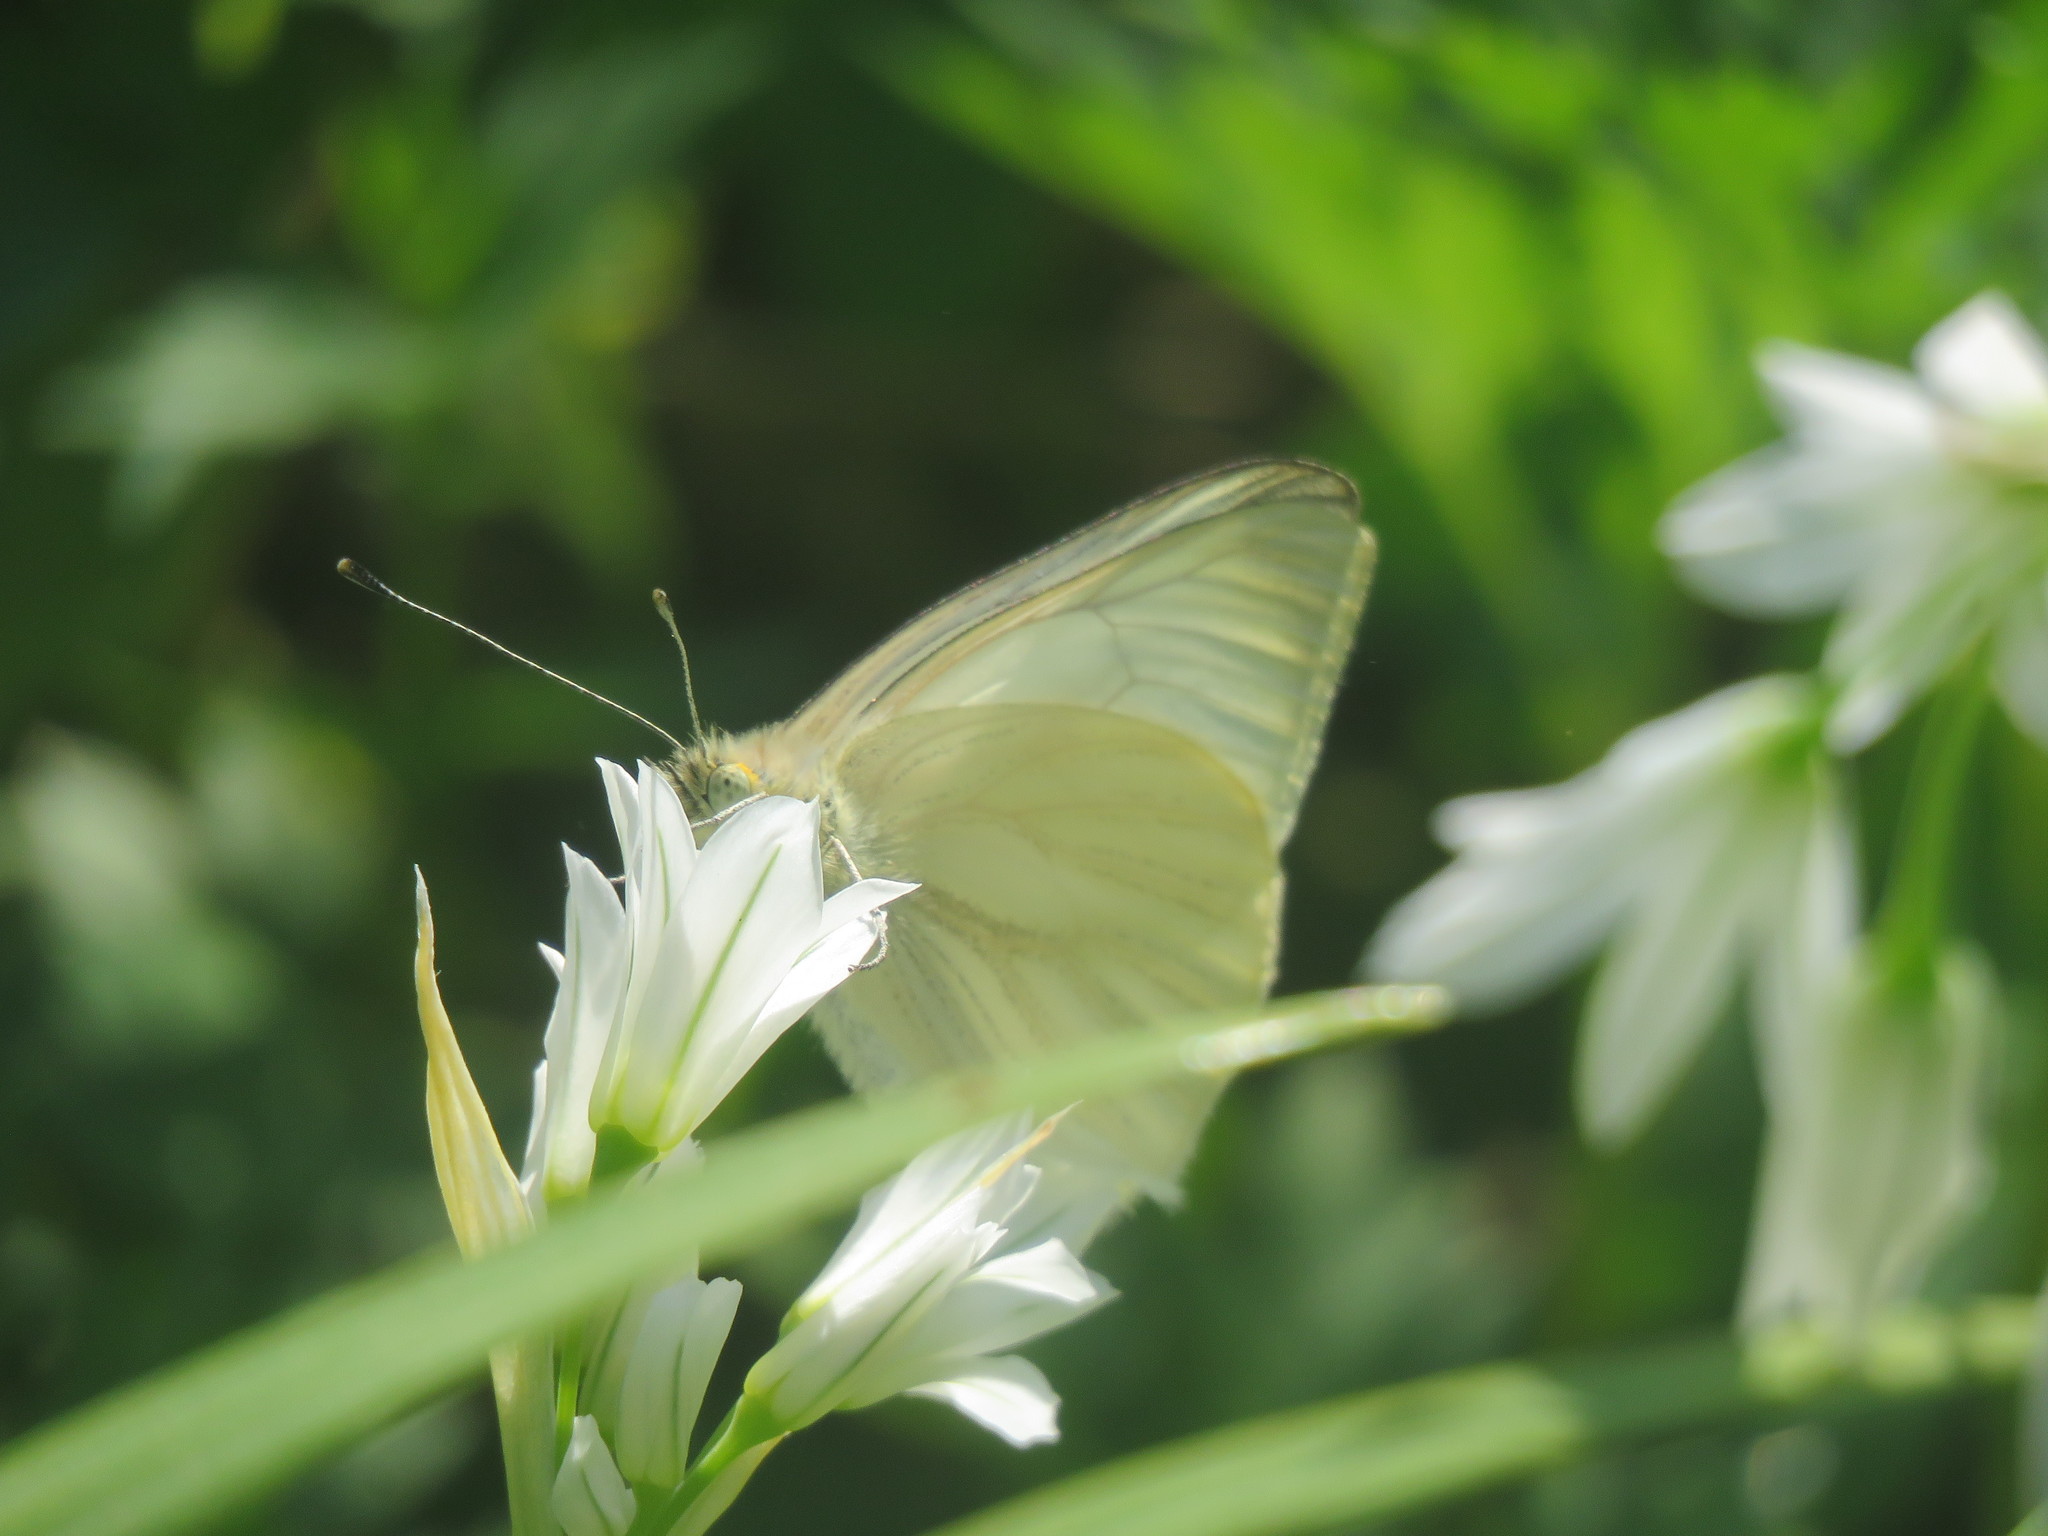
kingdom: Animalia
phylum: Arthropoda
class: Insecta
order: Lepidoptera
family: Pieridae
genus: Theochila
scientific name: Theochila maenacte
